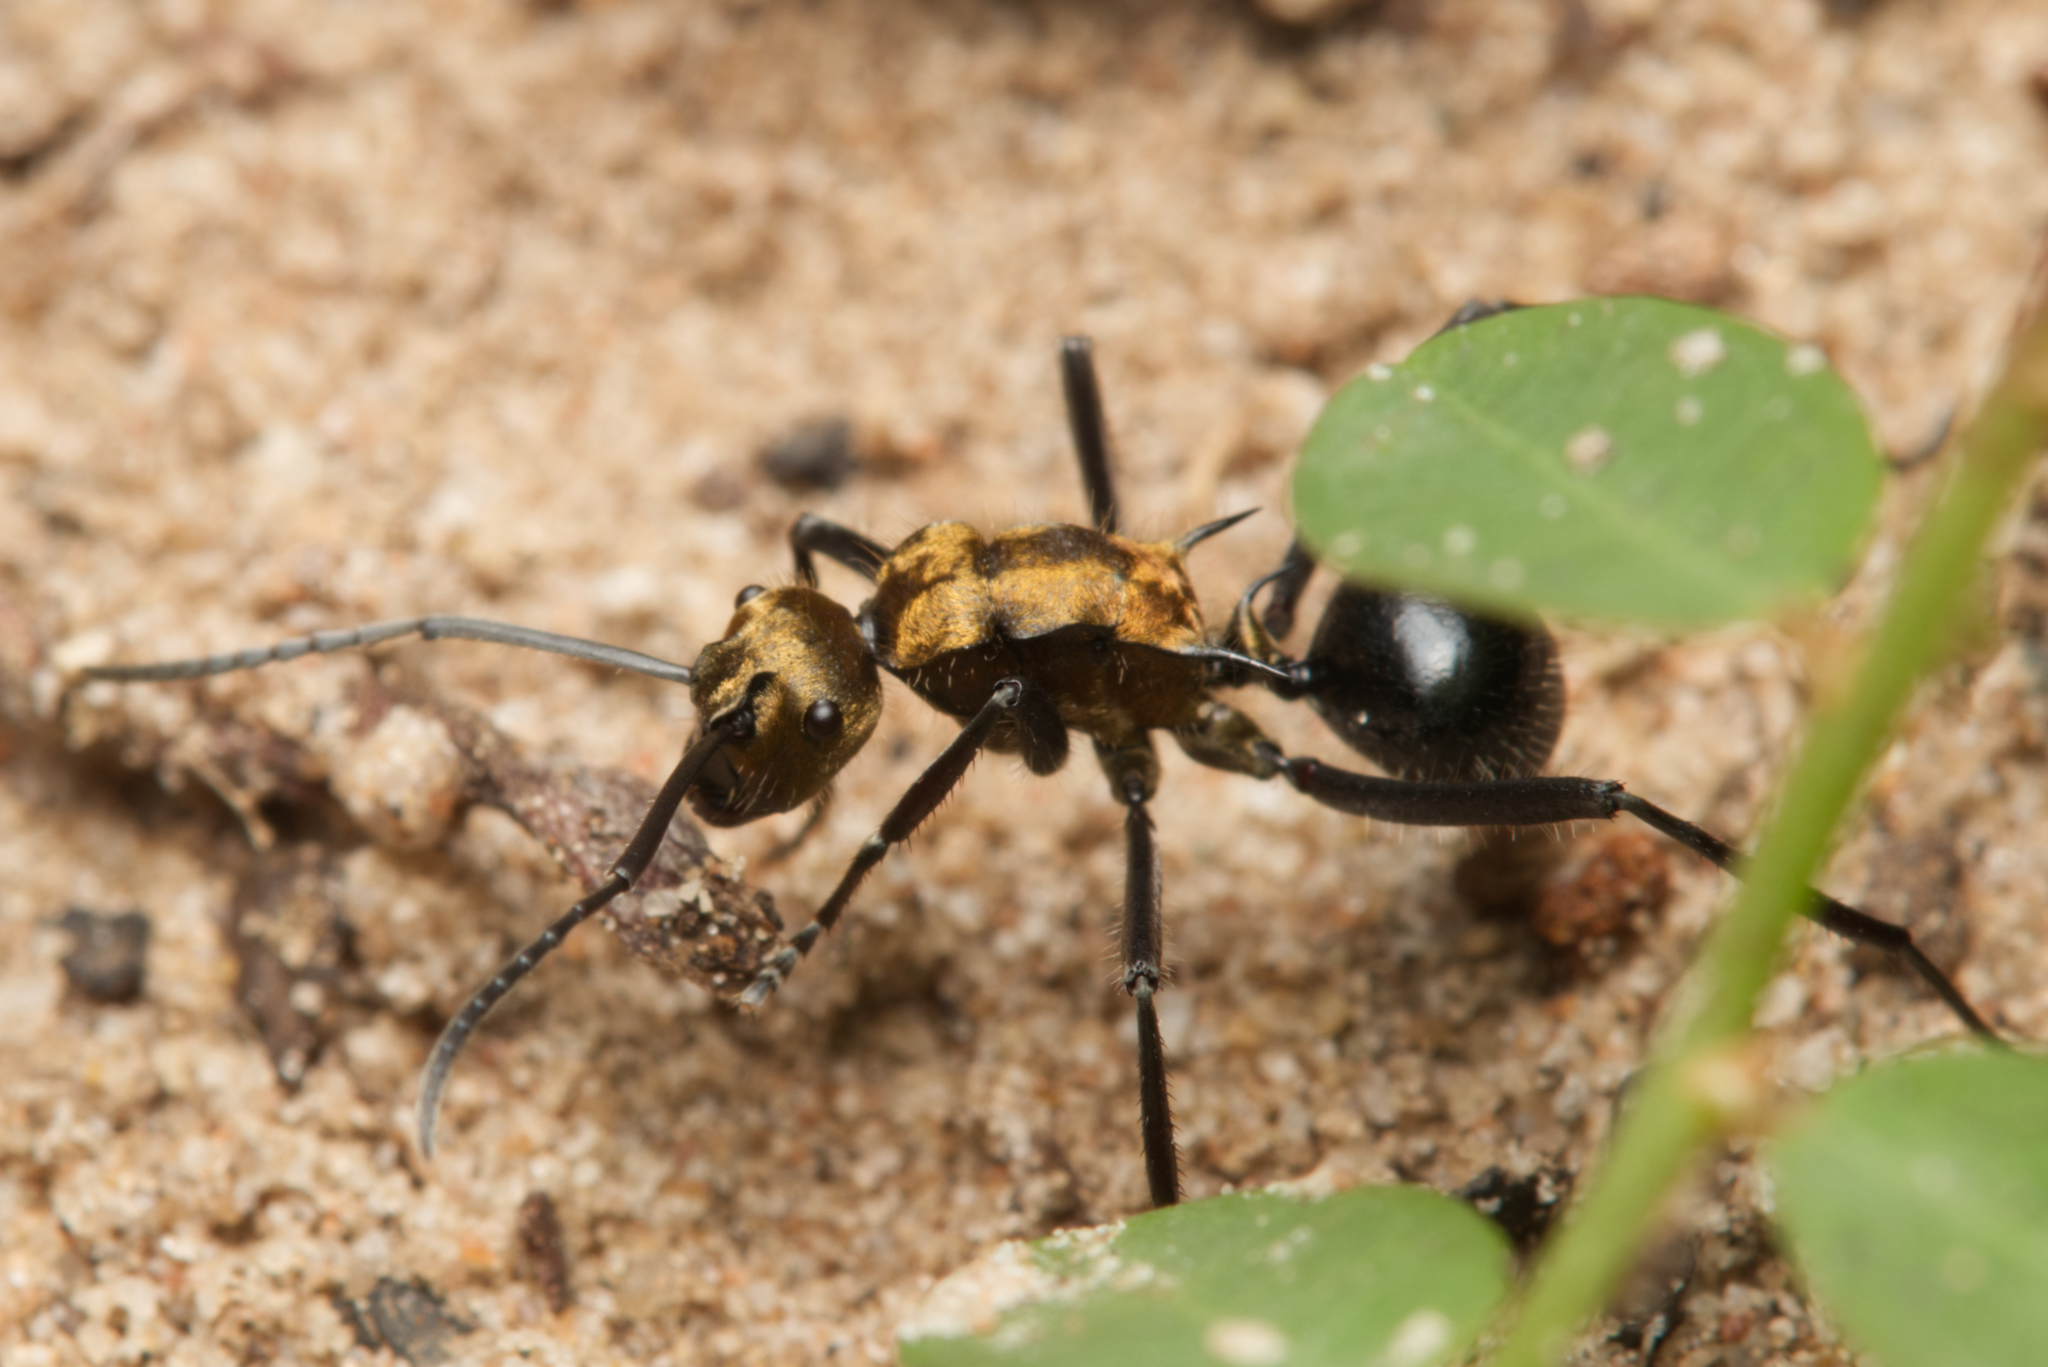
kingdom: Animalia
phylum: Arthropoda
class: Insecta
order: Hymenoptera
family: Formicidae
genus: Polyrhachis
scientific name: Polyrhachis semiaurata
